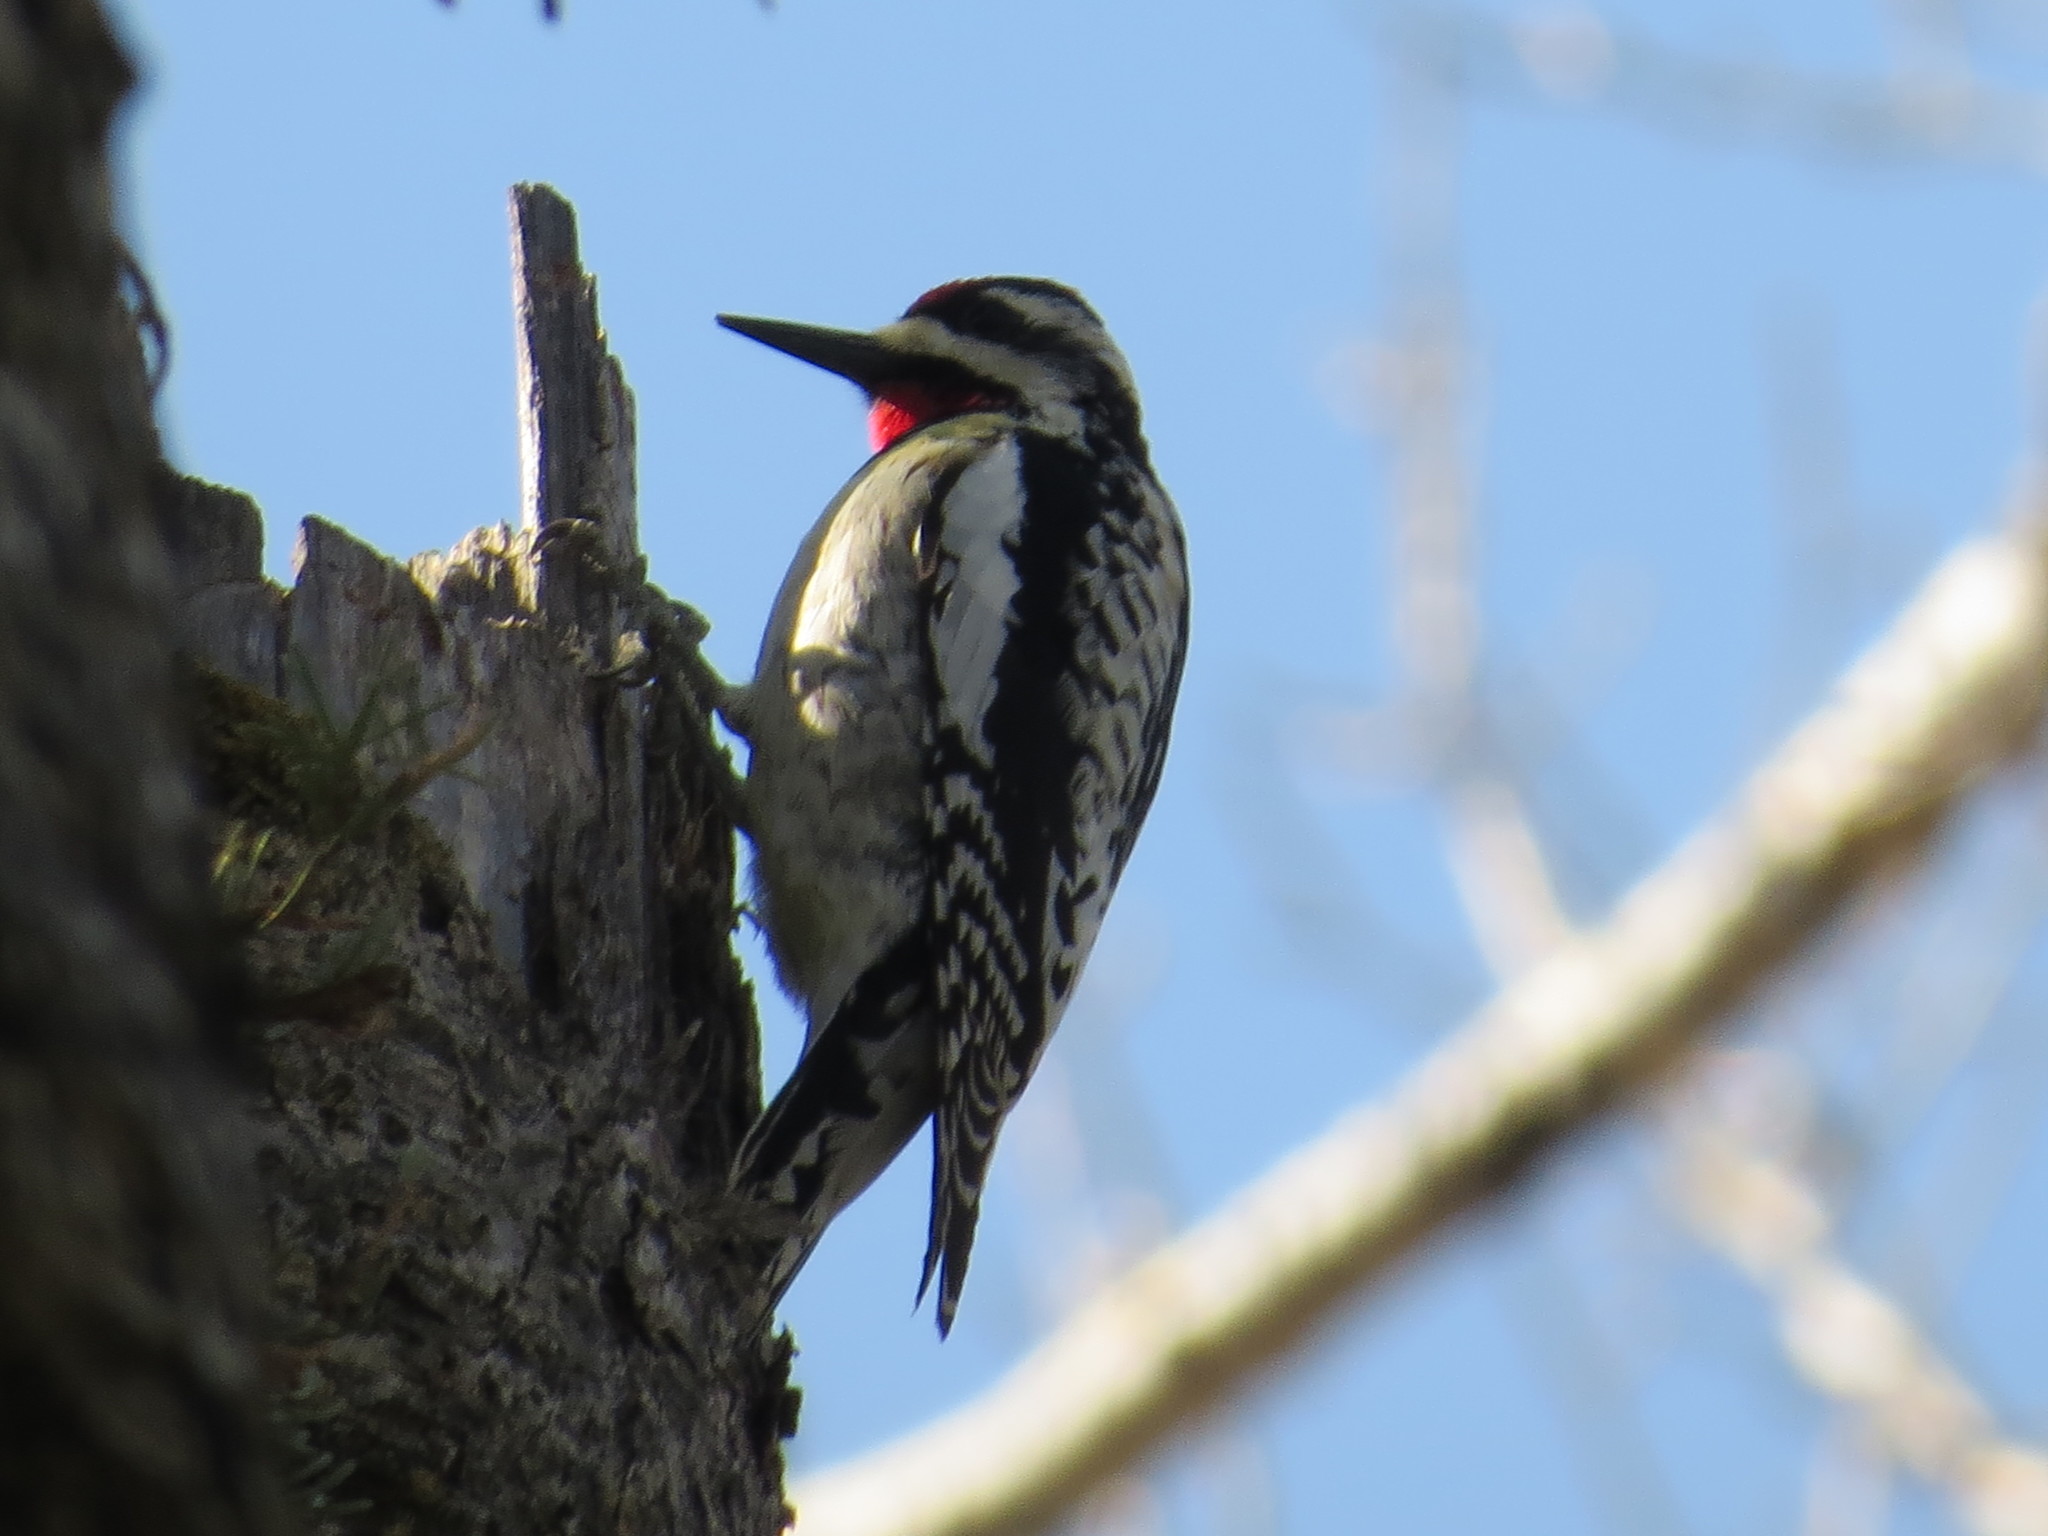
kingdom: Animalia
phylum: Chordata
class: Aves
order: Piciformes
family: Picidae
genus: Sphyrapicus
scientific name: Sphyrapicus varius
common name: Yellow-bellied sapsucker
